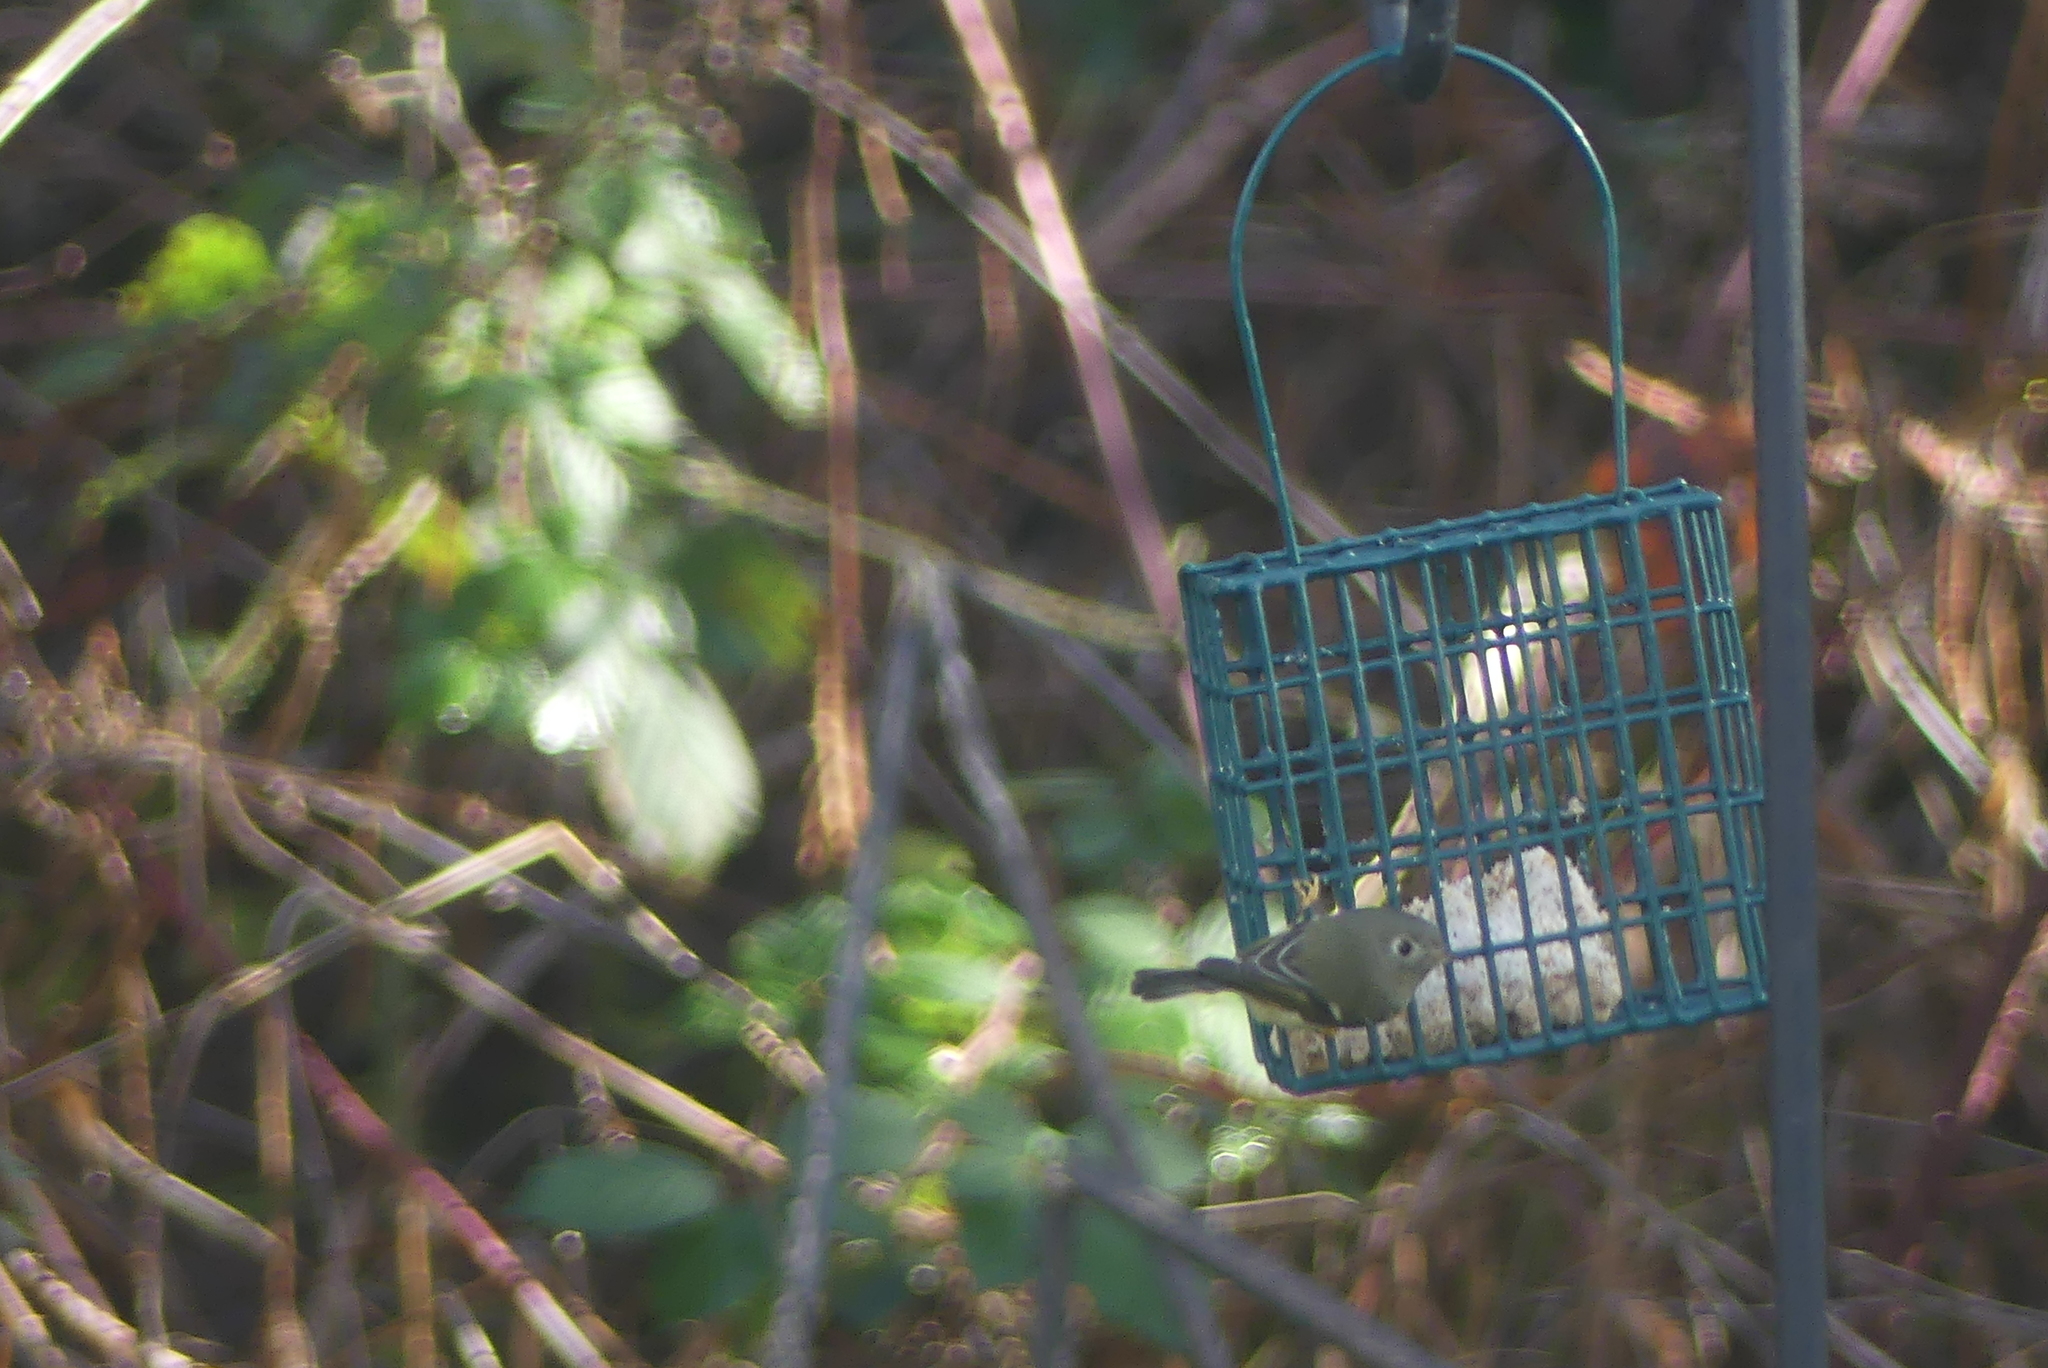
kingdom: Animalia
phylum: Chordata
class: Aves
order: Passeriformes
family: Regulidae
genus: Regulus
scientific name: Regulus calendula
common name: Ruby-crowned kinglet
